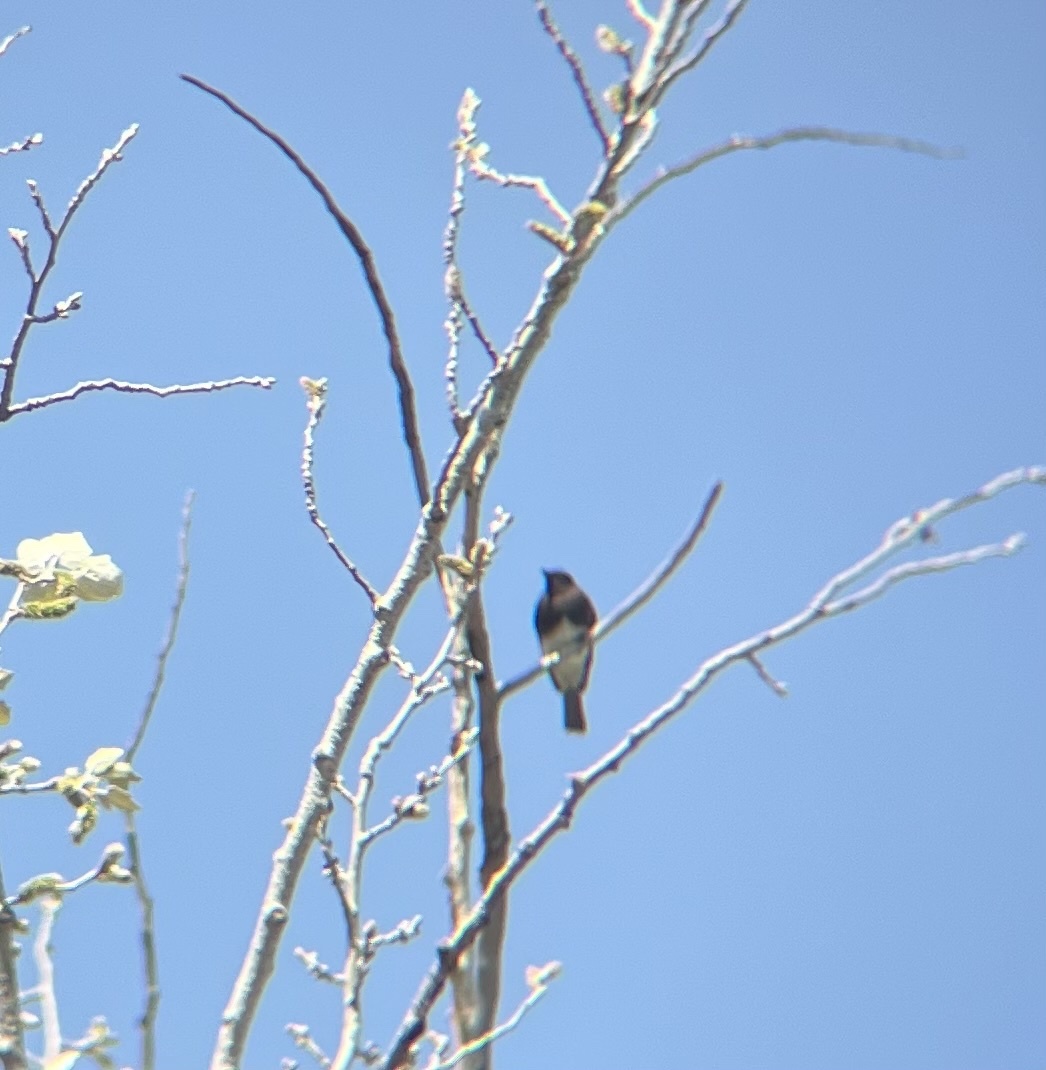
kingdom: Animalia
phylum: Chordata
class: Aves
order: Passeriformes
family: Tyrannidae
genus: Sayornis
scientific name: Sayornis nigricans
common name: Black phoebe
